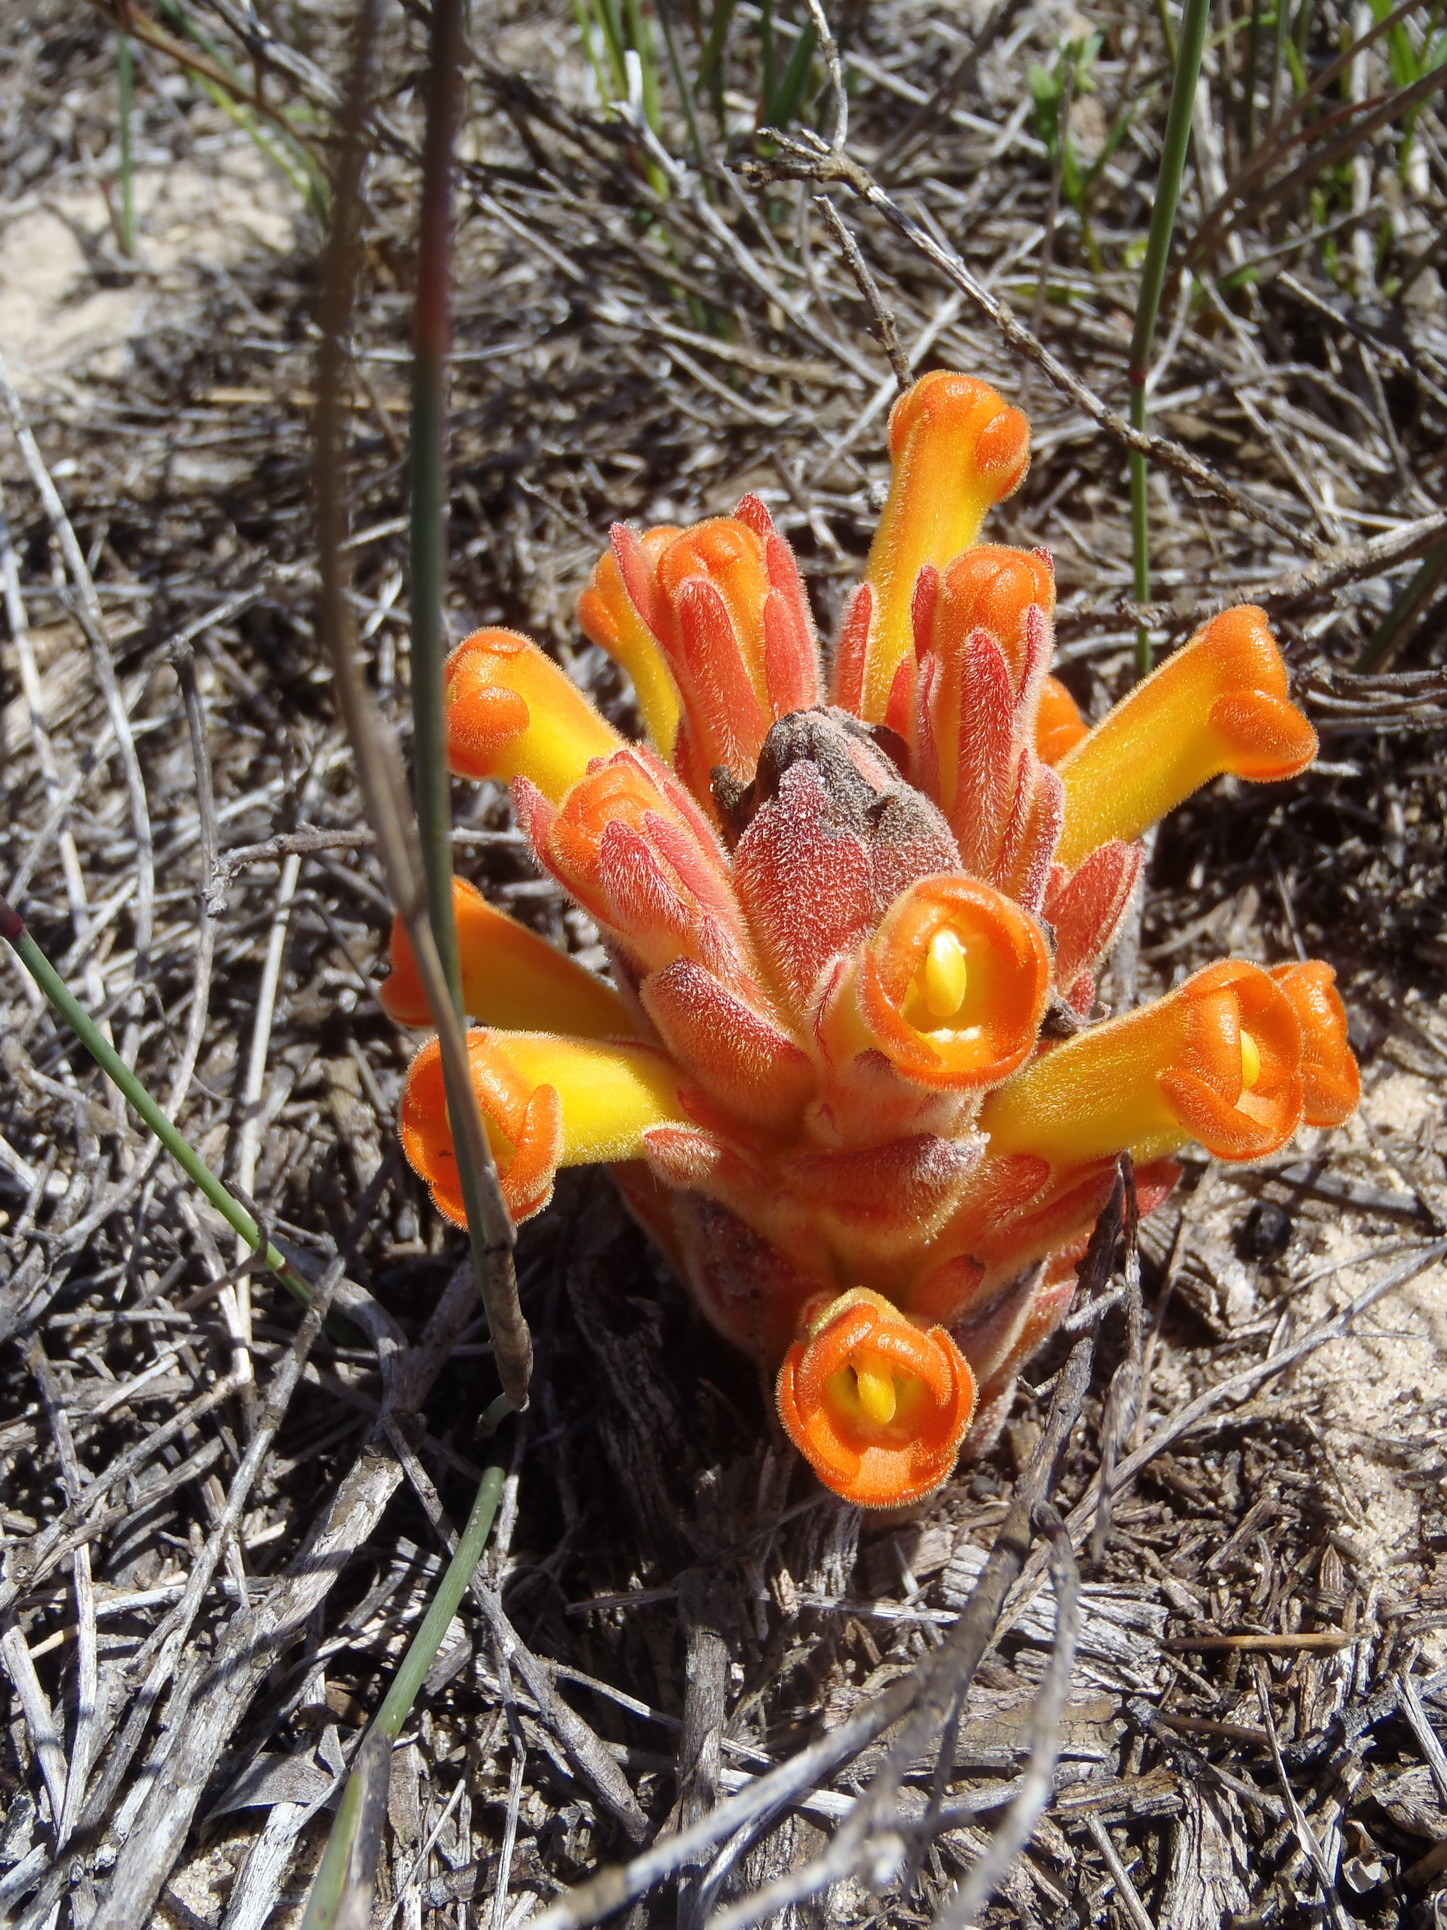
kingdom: Plantae
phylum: Tracheophyta
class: Magnoliopsida
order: Lamiales
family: Orobanchaceae
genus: Harveya
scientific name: Harveya squamosa
